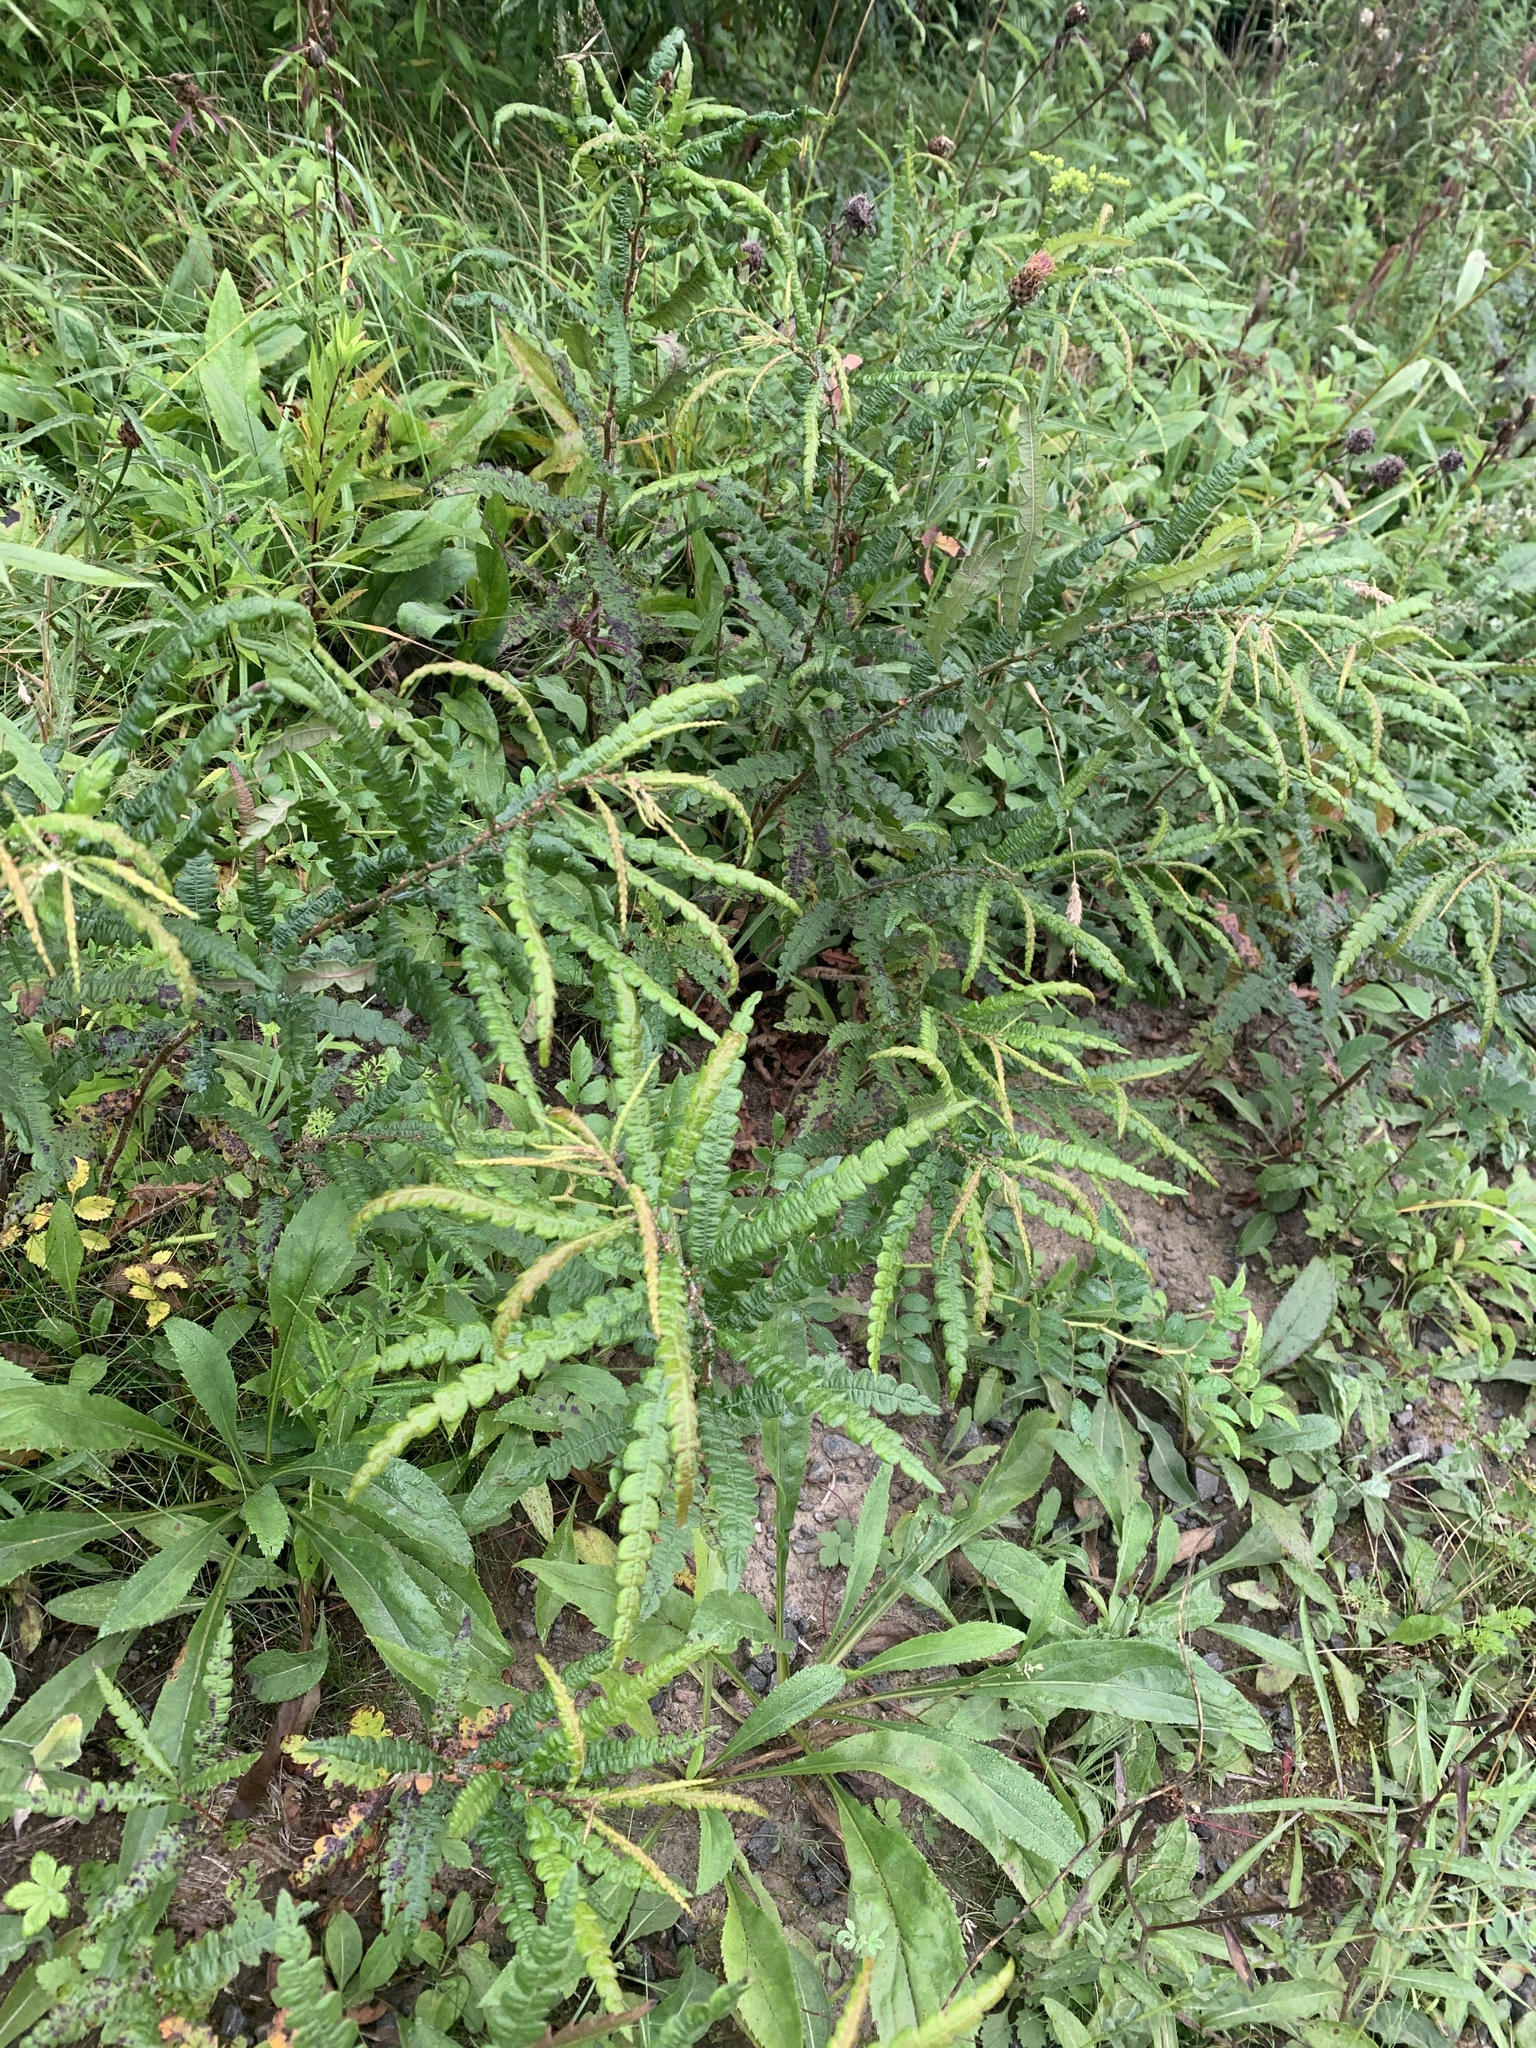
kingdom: Plantae
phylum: Tracheophyta
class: Magnoliopsida
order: Fagales
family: Myricaceae
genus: Comptonia
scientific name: Comptonia peregrina
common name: Sweet-fern
